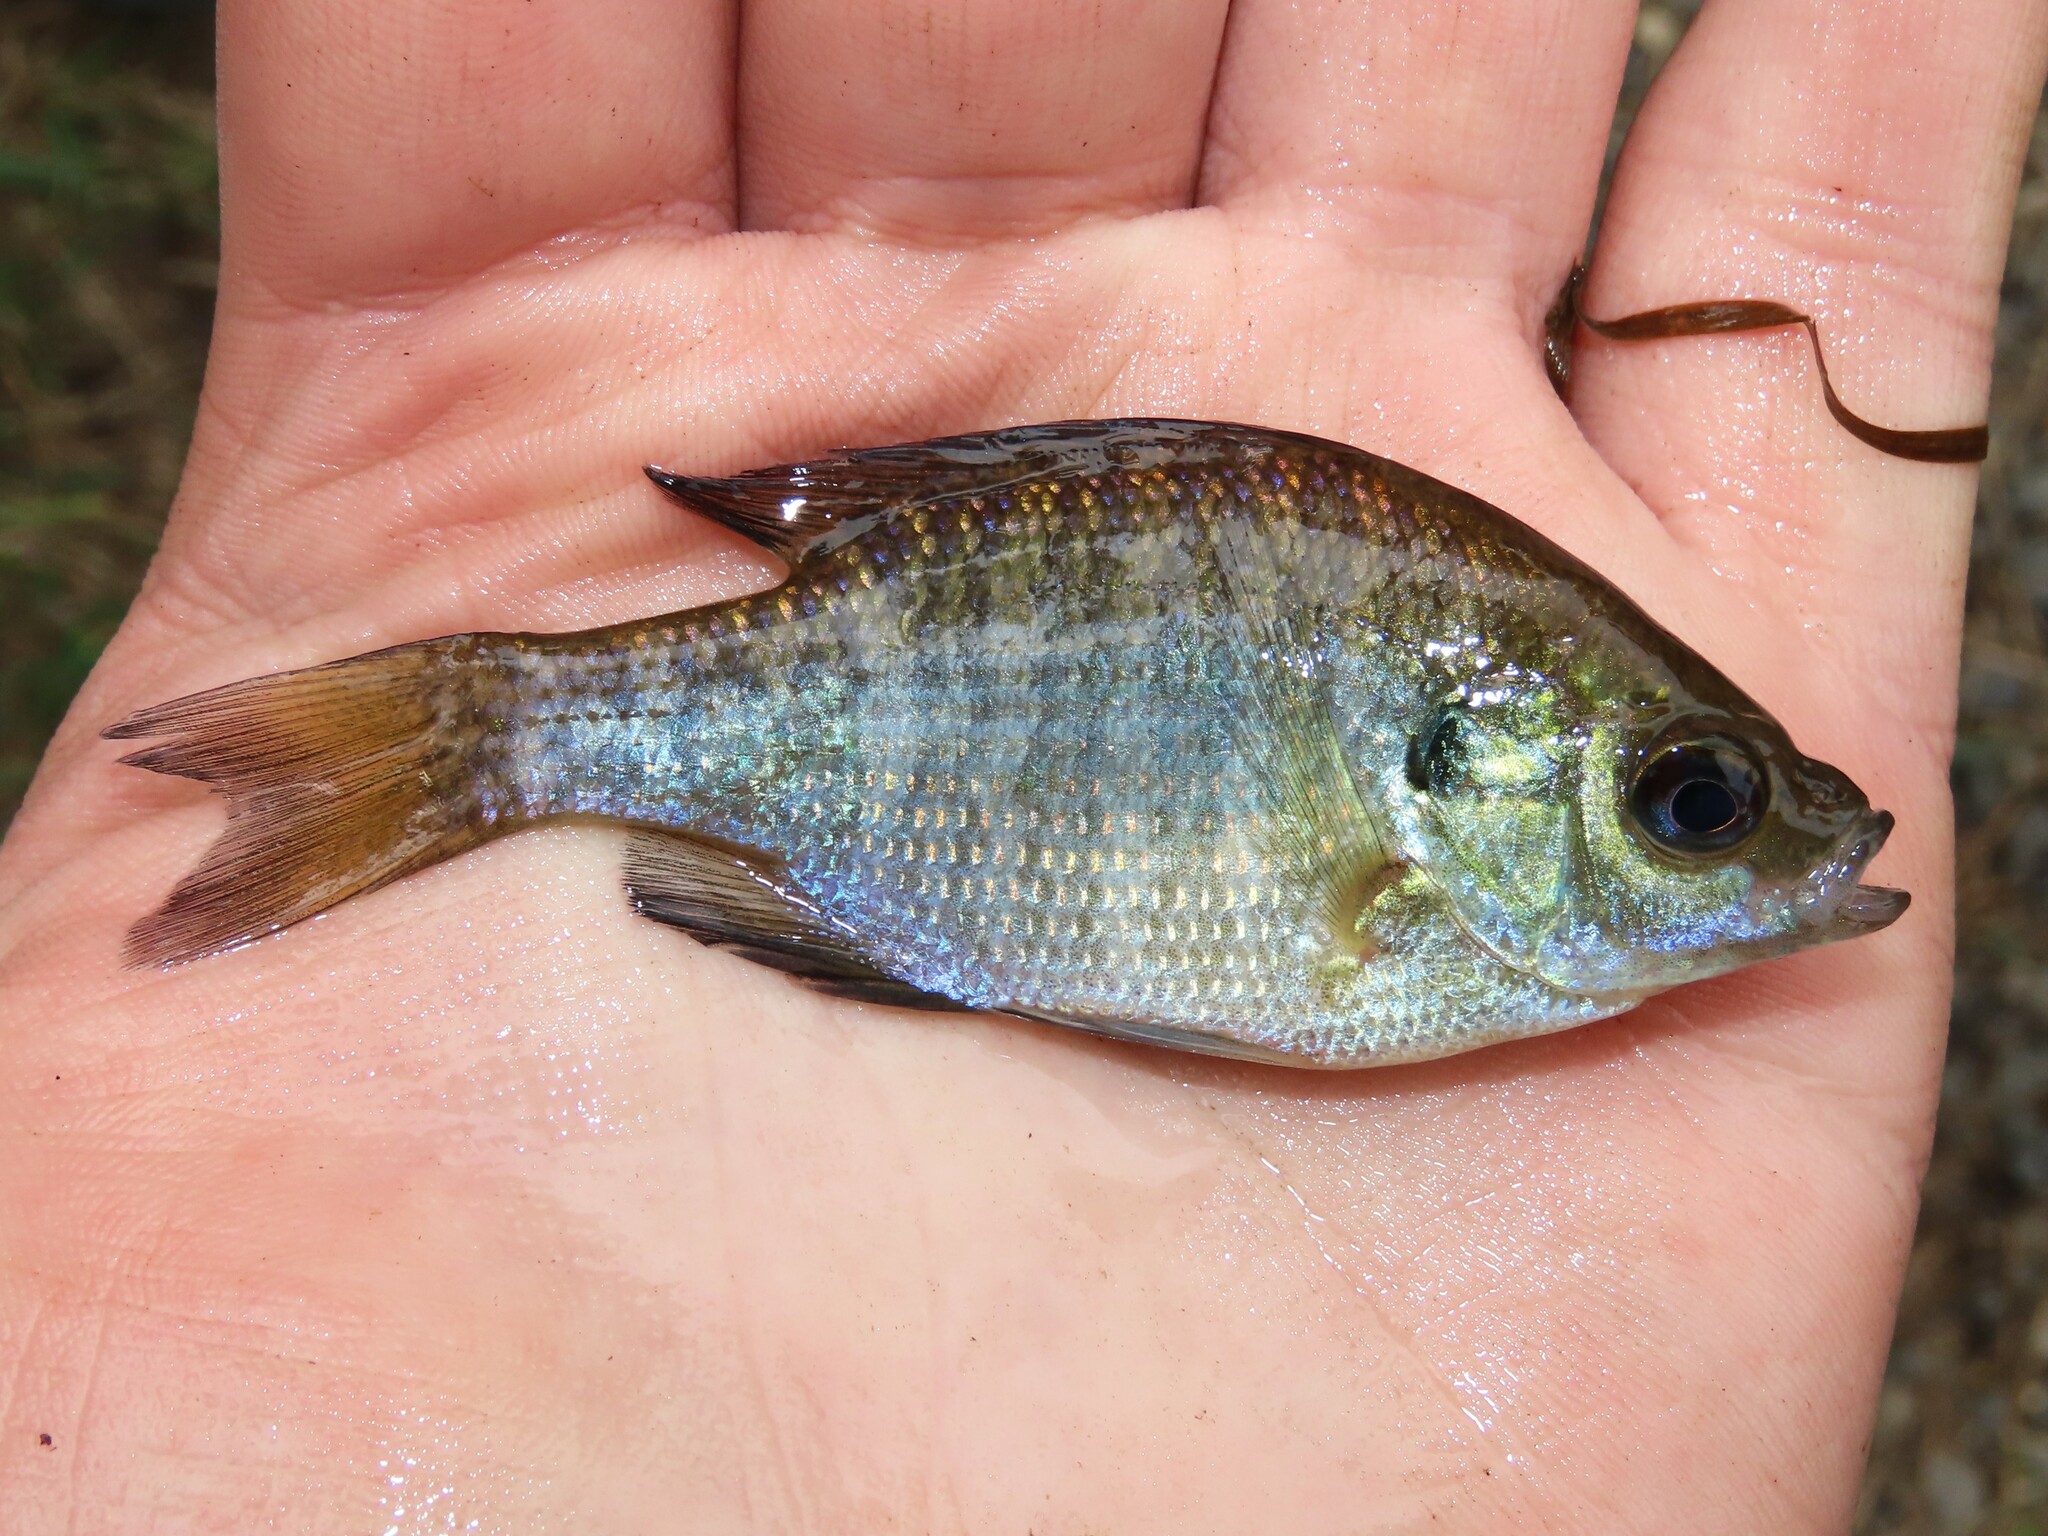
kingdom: Animalia
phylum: Chordata
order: Perciformes
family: Centrarchidae
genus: Lepomis
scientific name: Lepomis macrochirus
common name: Bluegill
